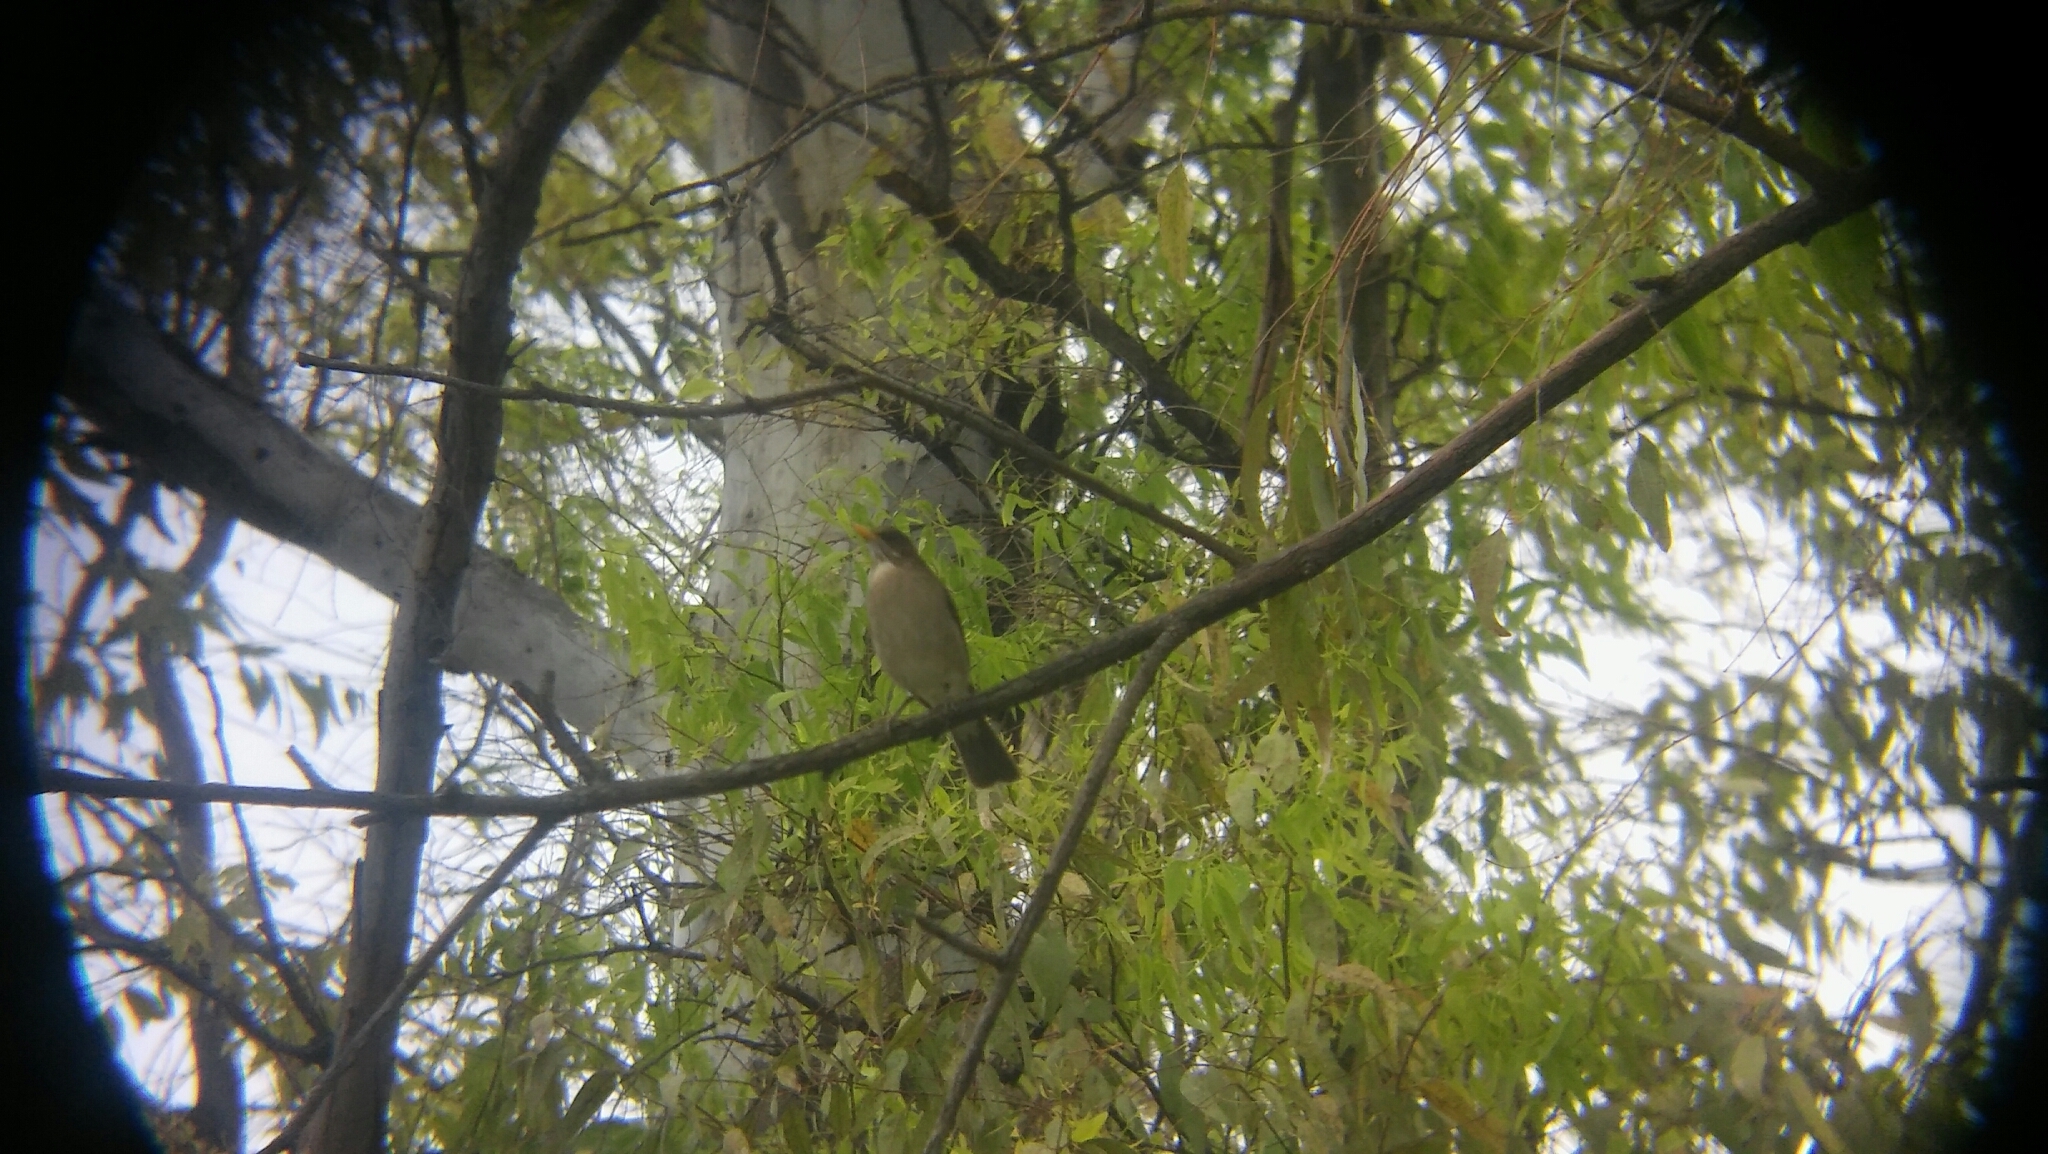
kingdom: Animalia
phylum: Chordata
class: Aves
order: Passeriformes
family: Turdidae
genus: Turdus
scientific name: Turdus amaurochalinus
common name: Creamy-bellied thrush
